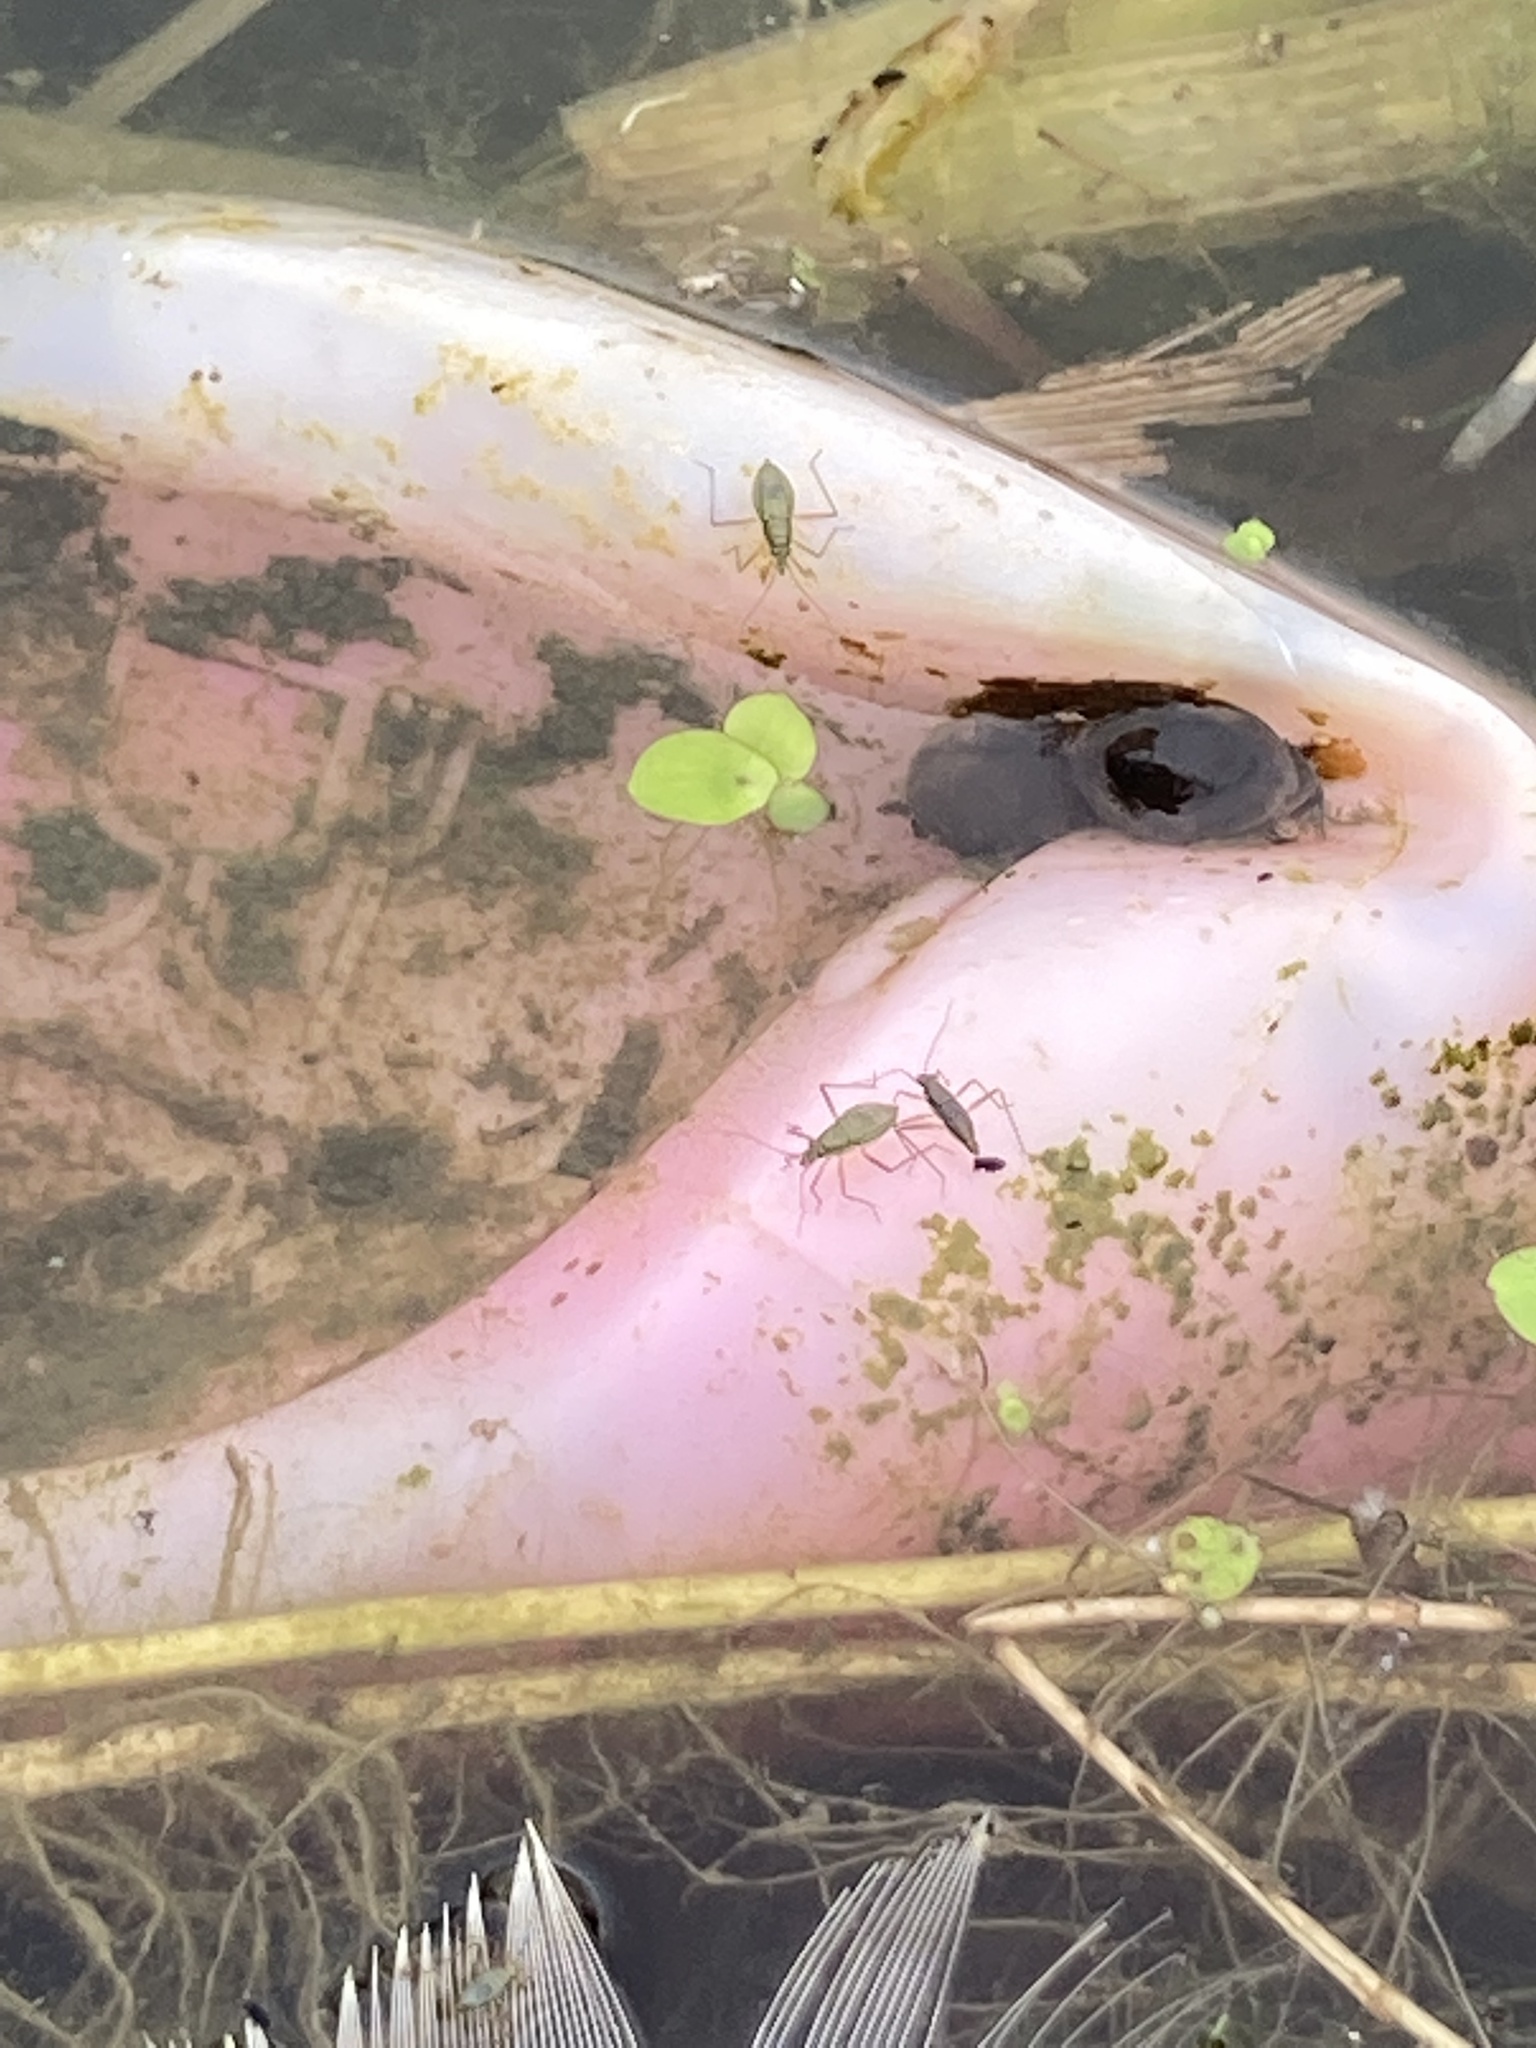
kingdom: Animalia
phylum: Arthropoda
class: Insecta
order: Hemiptera
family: Mesoveliidae
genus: Mesovelia
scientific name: Mesovelia
